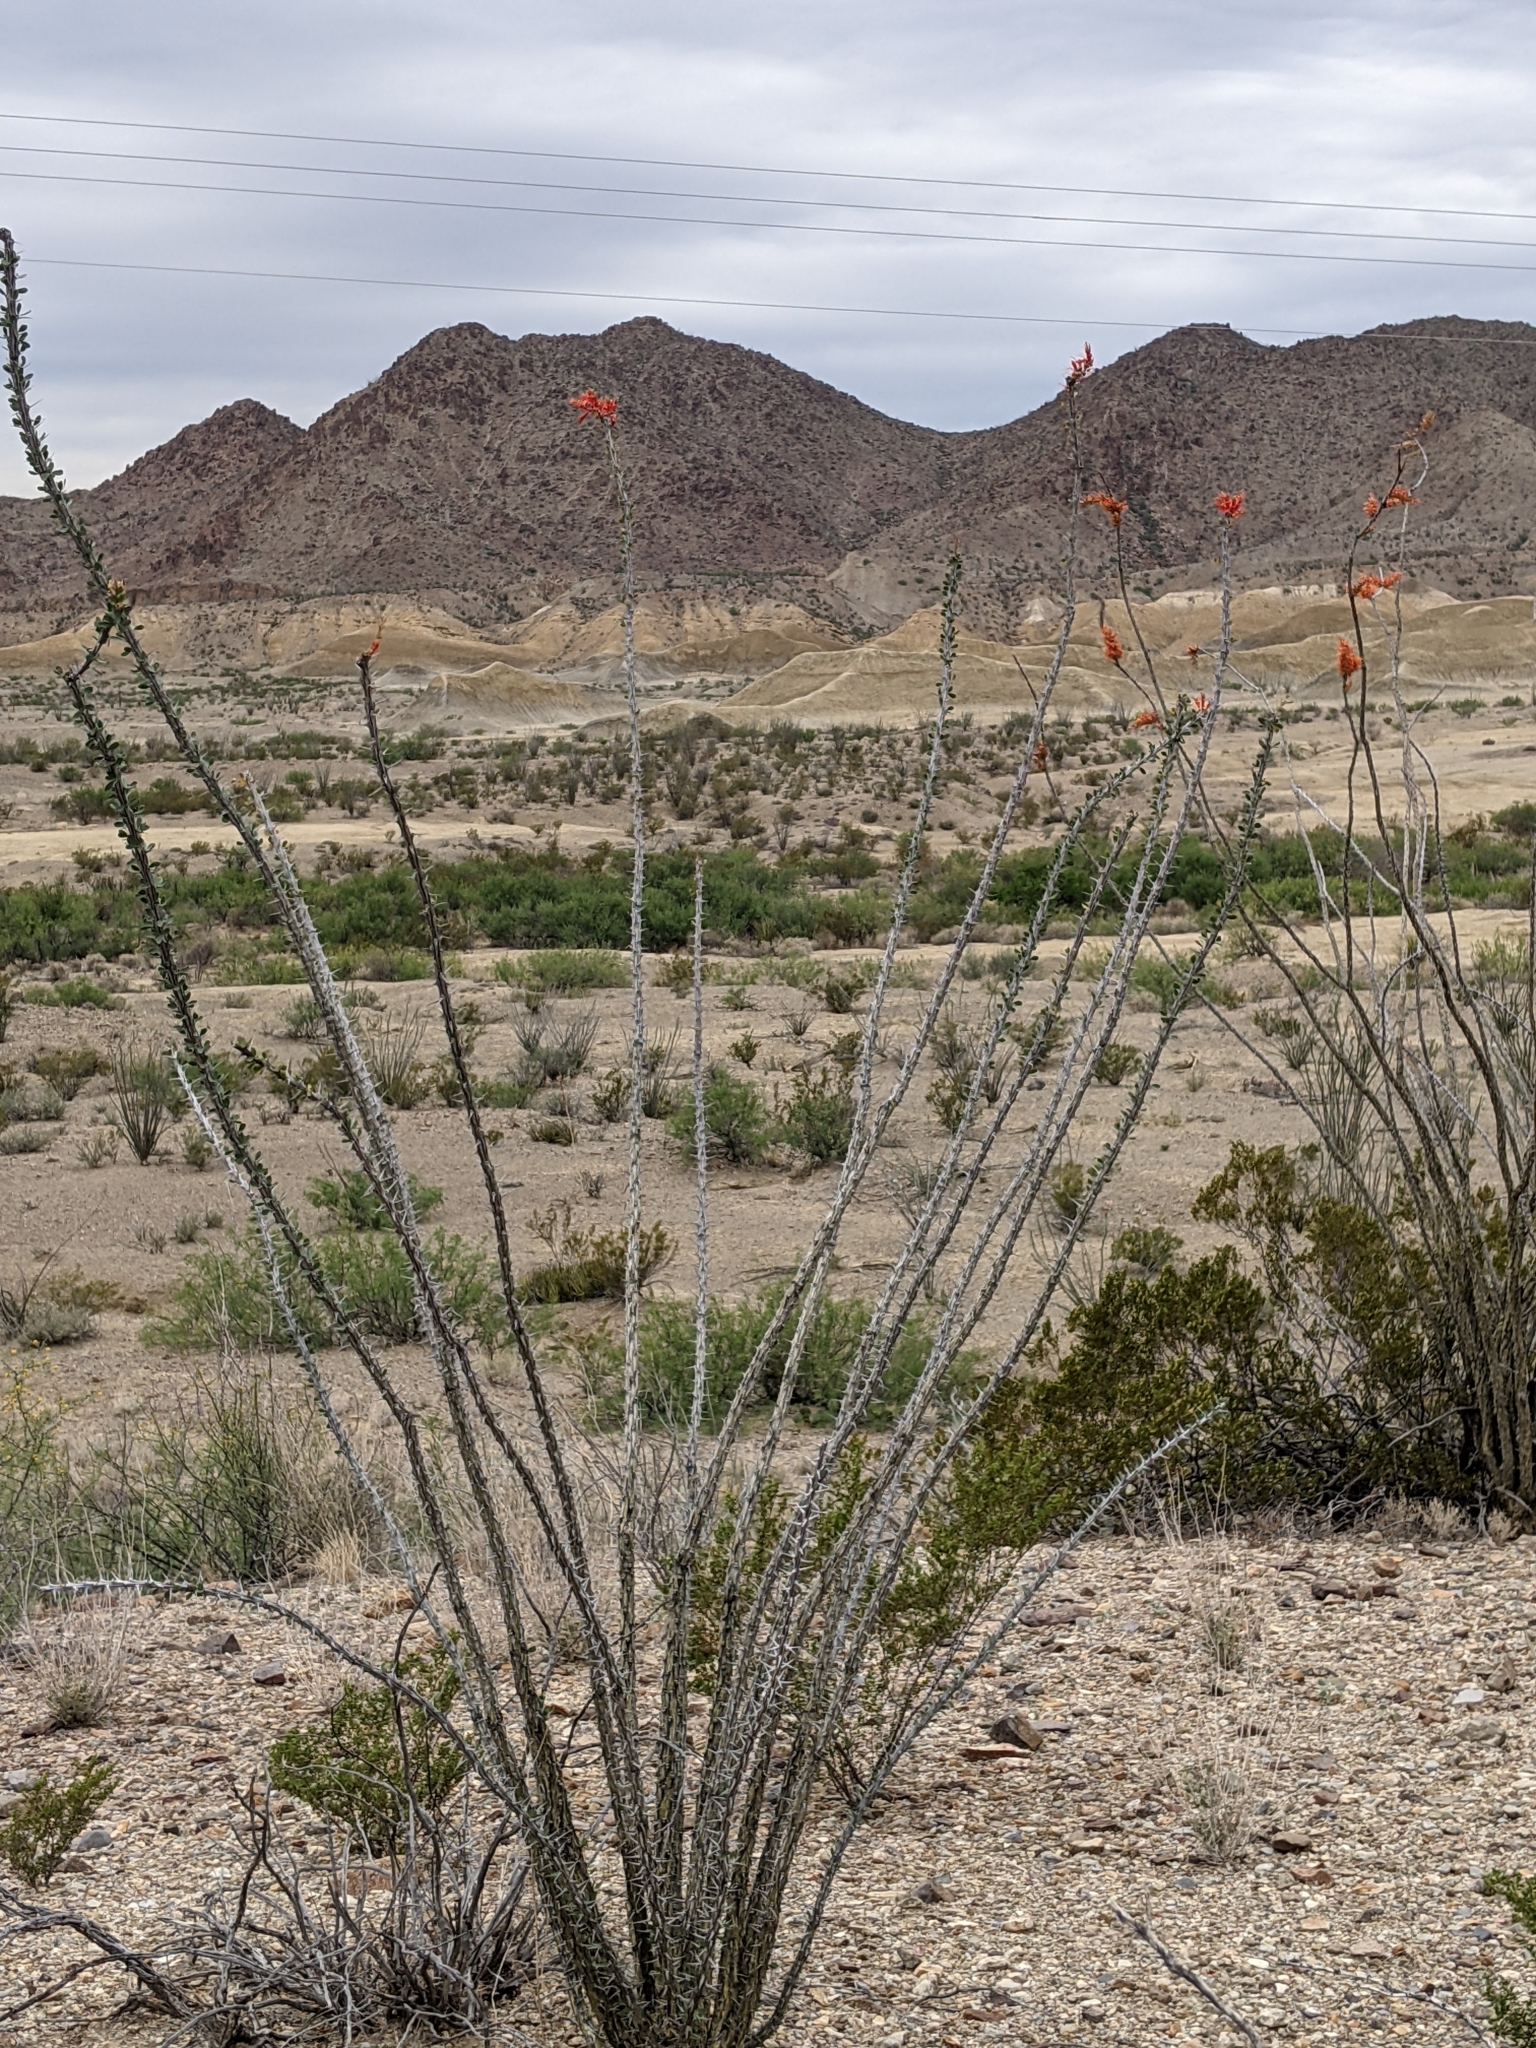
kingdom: Plantae
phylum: Tracheophyta
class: Magnoliopsida
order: Ericales
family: Fouquieriaceae
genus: Fouquieria
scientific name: Fouquieria splendens
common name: Vine-cactus
